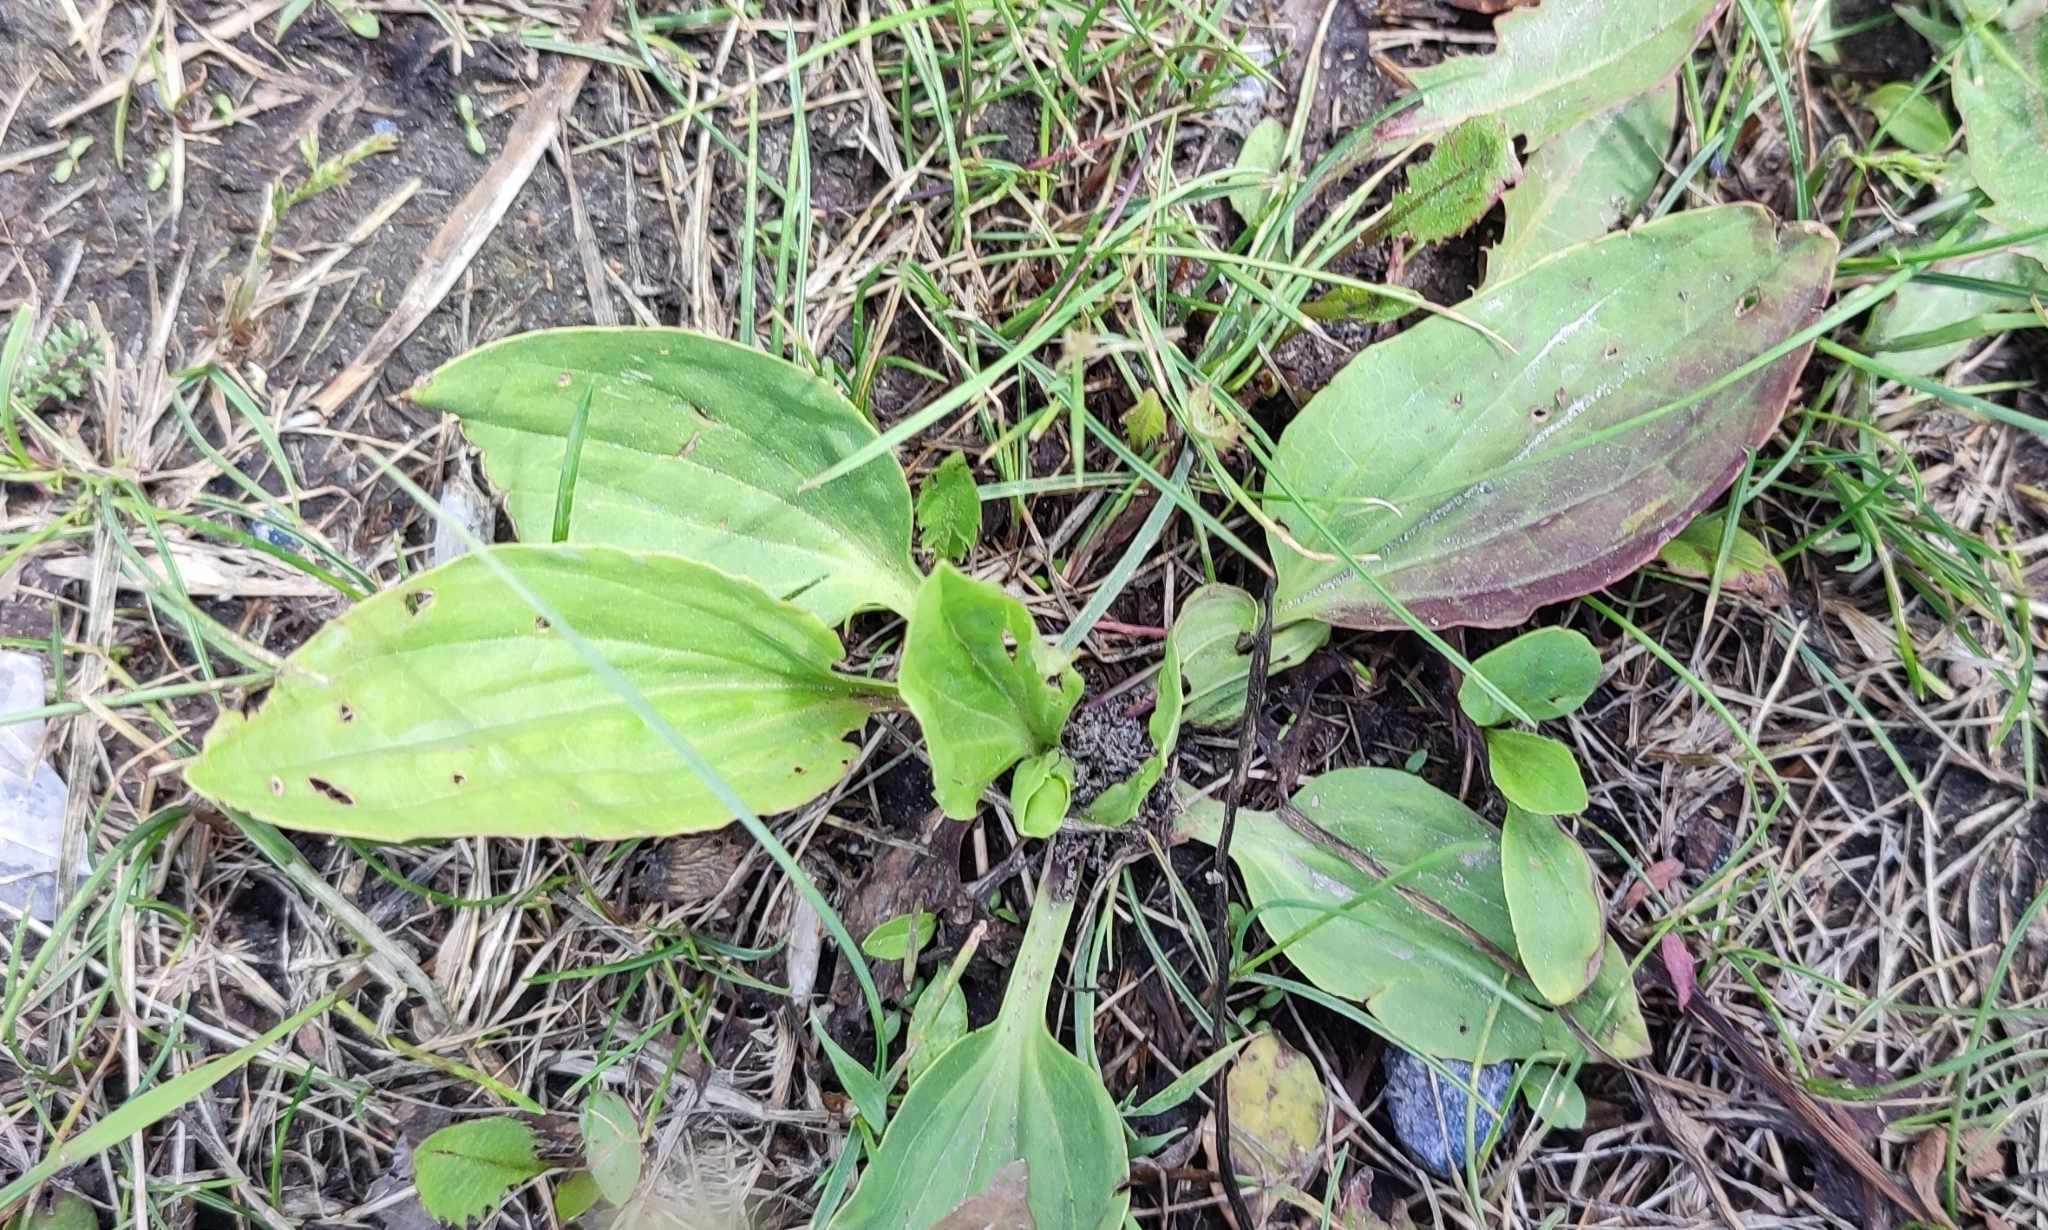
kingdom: Plantae
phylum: Tracheophyta
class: Magnoliopsida
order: Lamiales
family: Plantaginaceae
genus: Plantago
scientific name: Plantago major
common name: Common plantain
